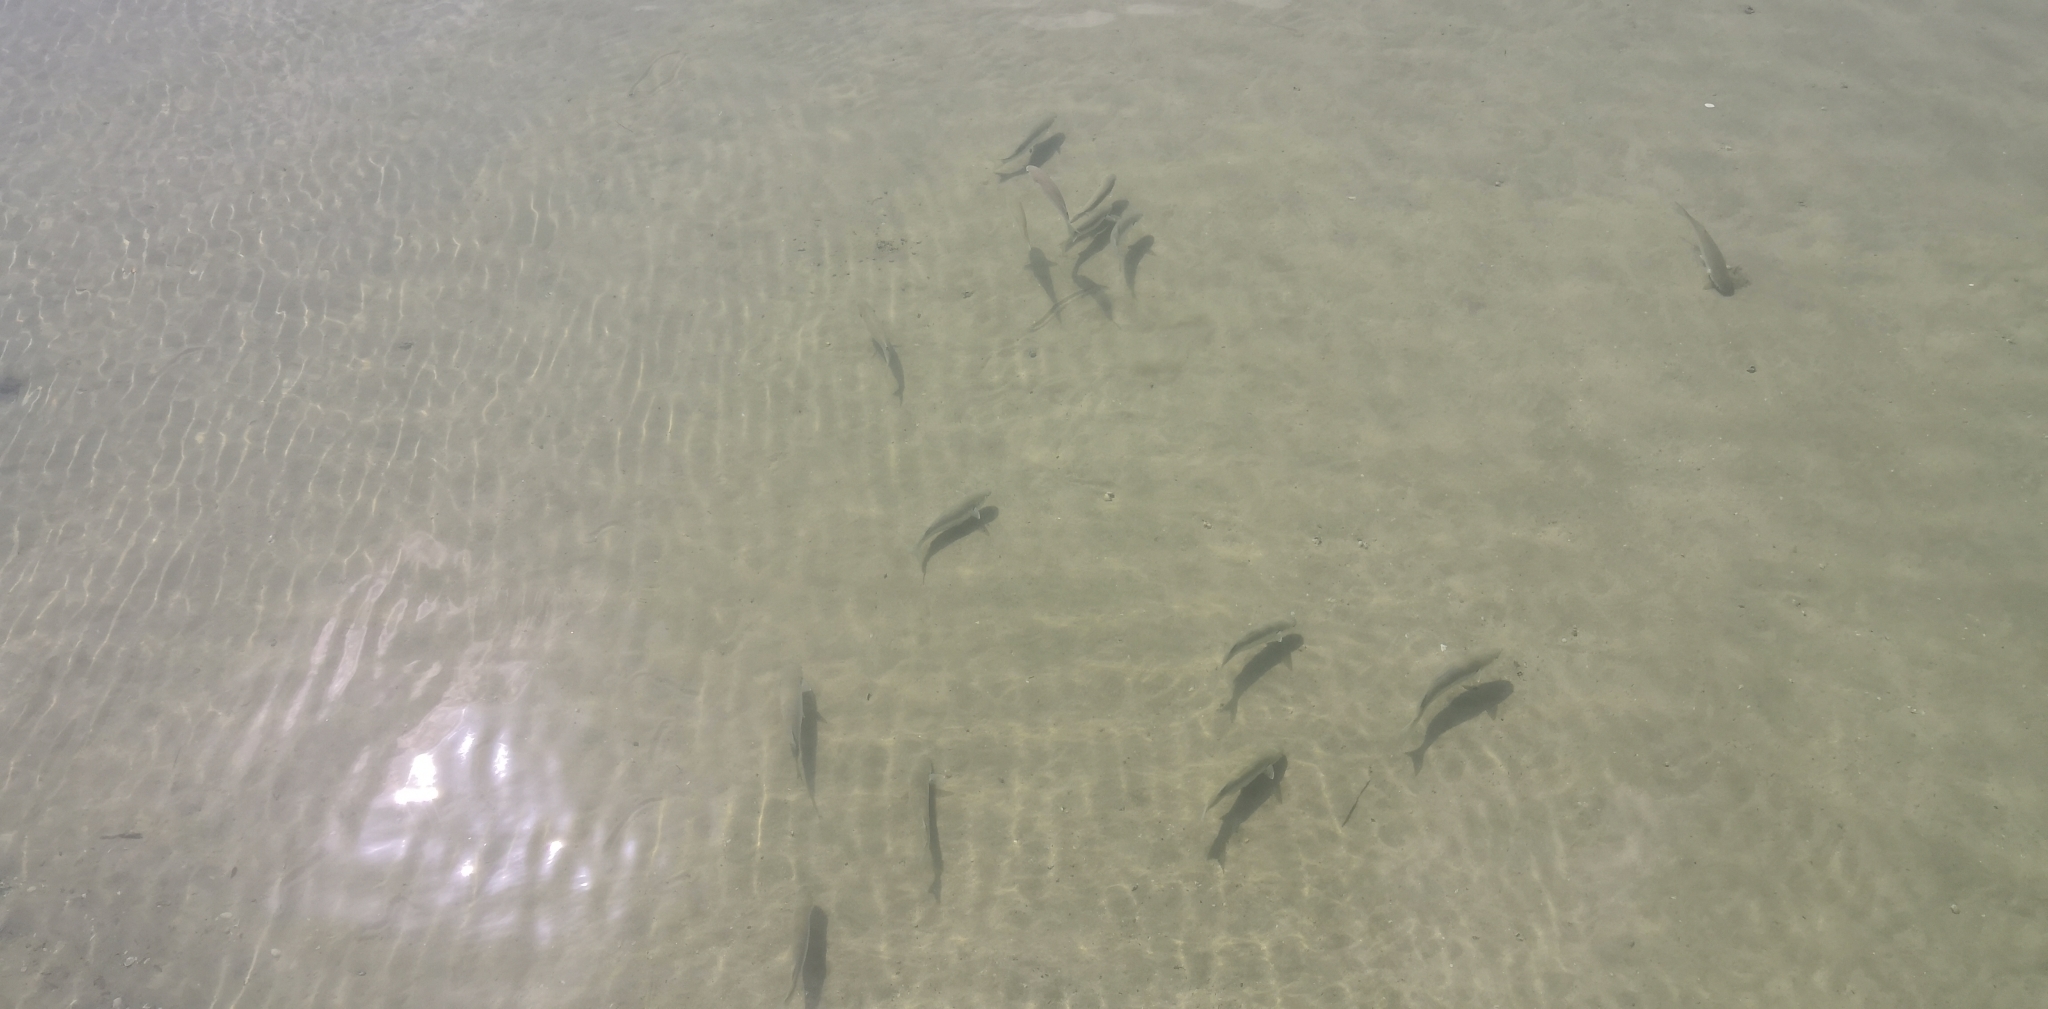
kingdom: Animalia
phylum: Chordata
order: Mugiliformes
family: Mugilidae
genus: Mugil
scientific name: Mugil cephalus
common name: Grey mullet
